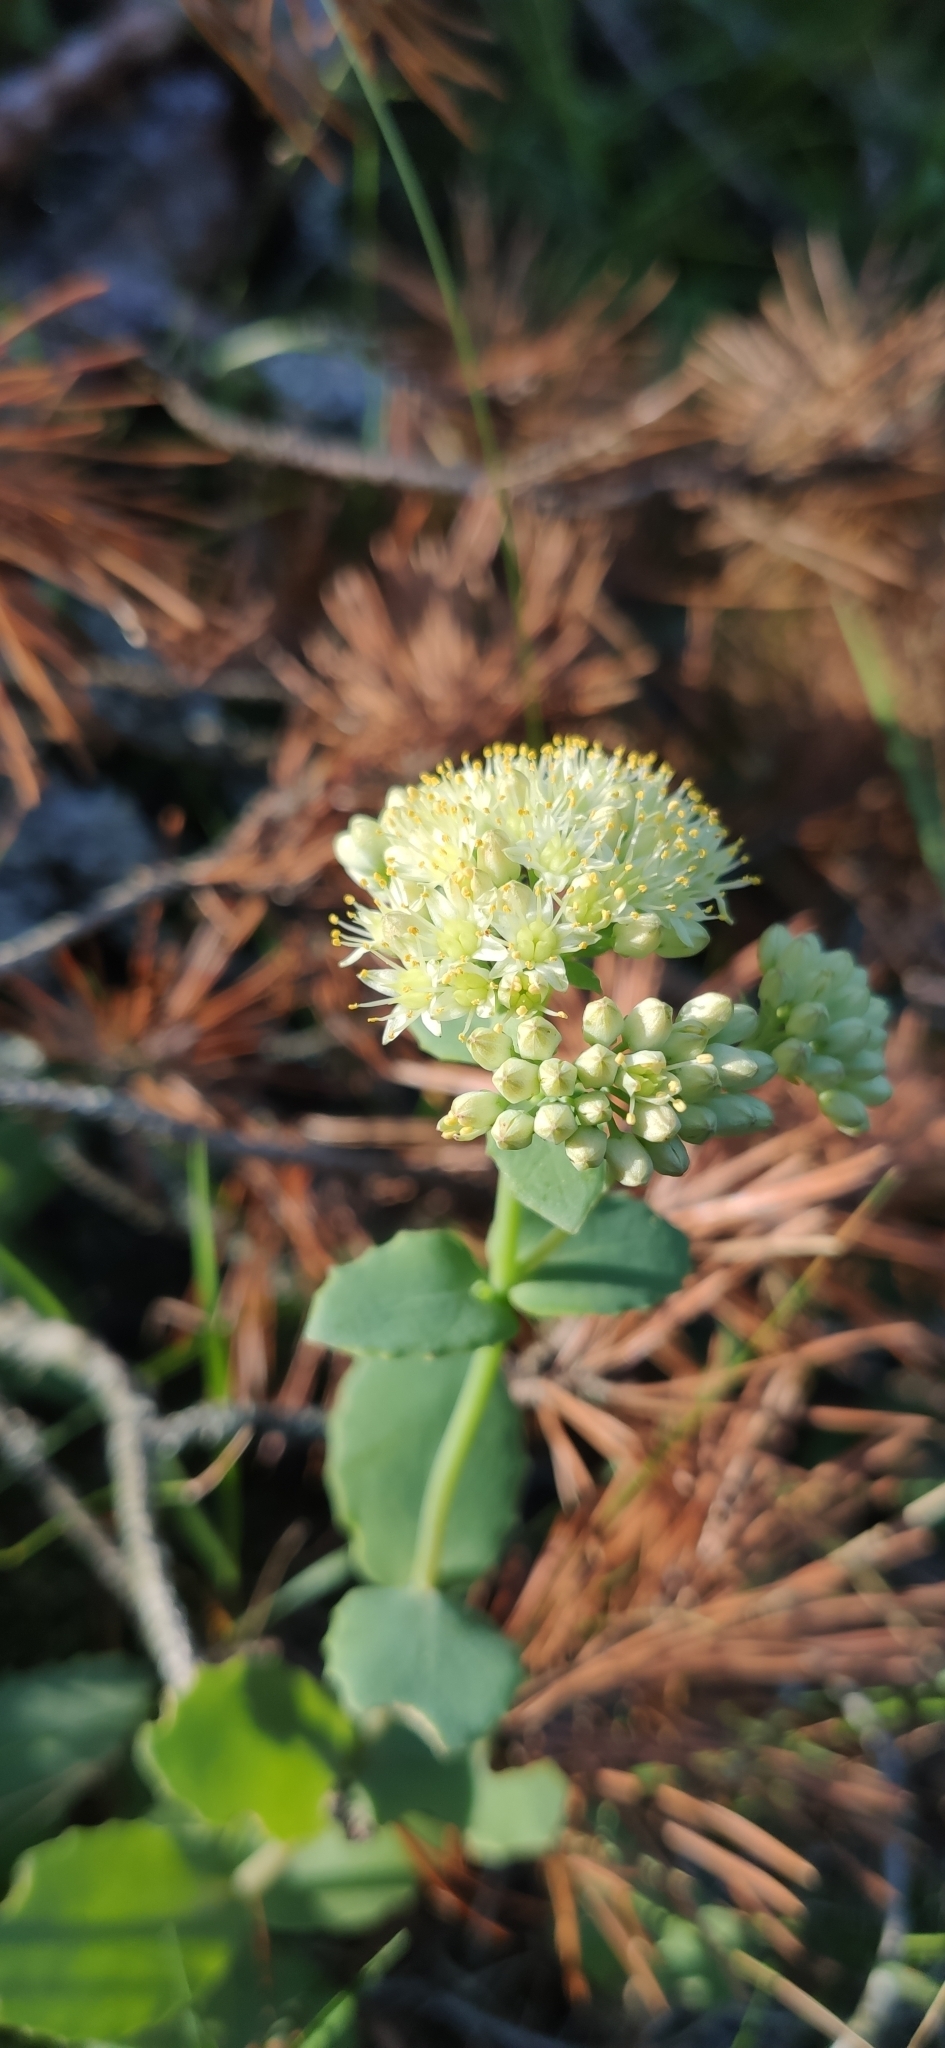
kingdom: Plantae
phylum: Tracheophyta
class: Magnoliopsida
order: Saxifragales
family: Crassulaceae
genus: Hylotelephium
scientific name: Hylotelephium maximum
